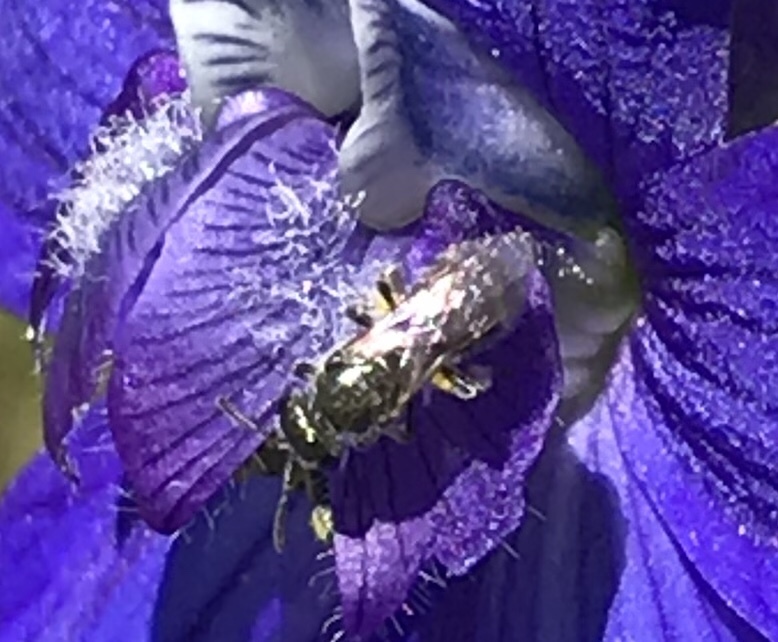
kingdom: Animalia
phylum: Arthropoda
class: Insecta
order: Hymenoptera
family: Halictidae
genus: Dialictus
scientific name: Dialictus
